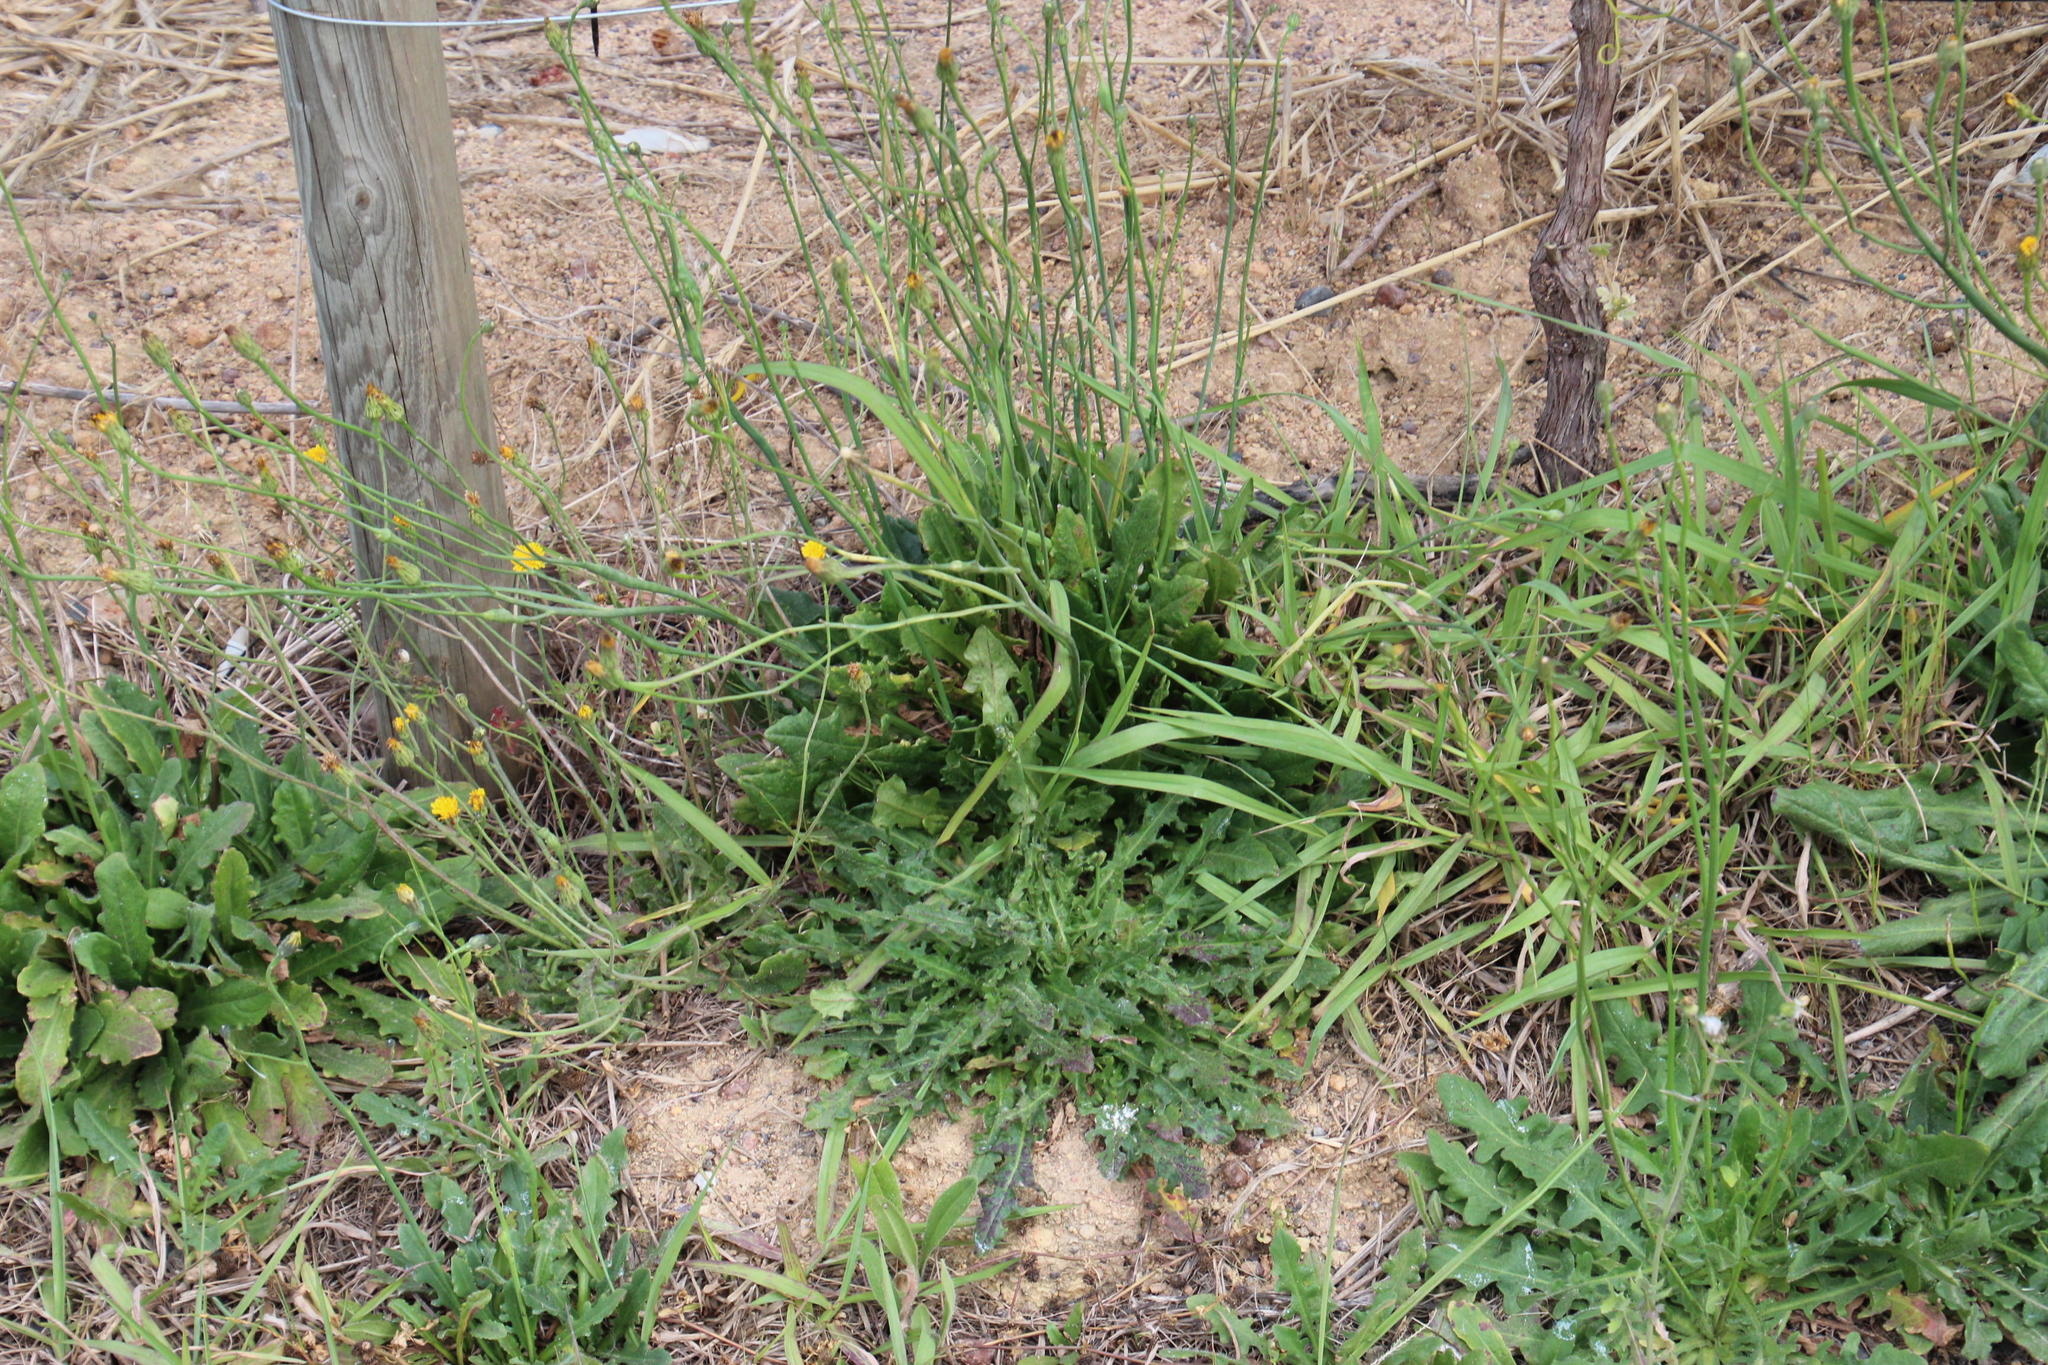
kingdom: Plantae
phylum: Tracheophyta
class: Magnoliopsida
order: Asterales
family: Asteraceae
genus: Hypochaeris
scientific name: Hypochaeris radicata
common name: Flatweed
